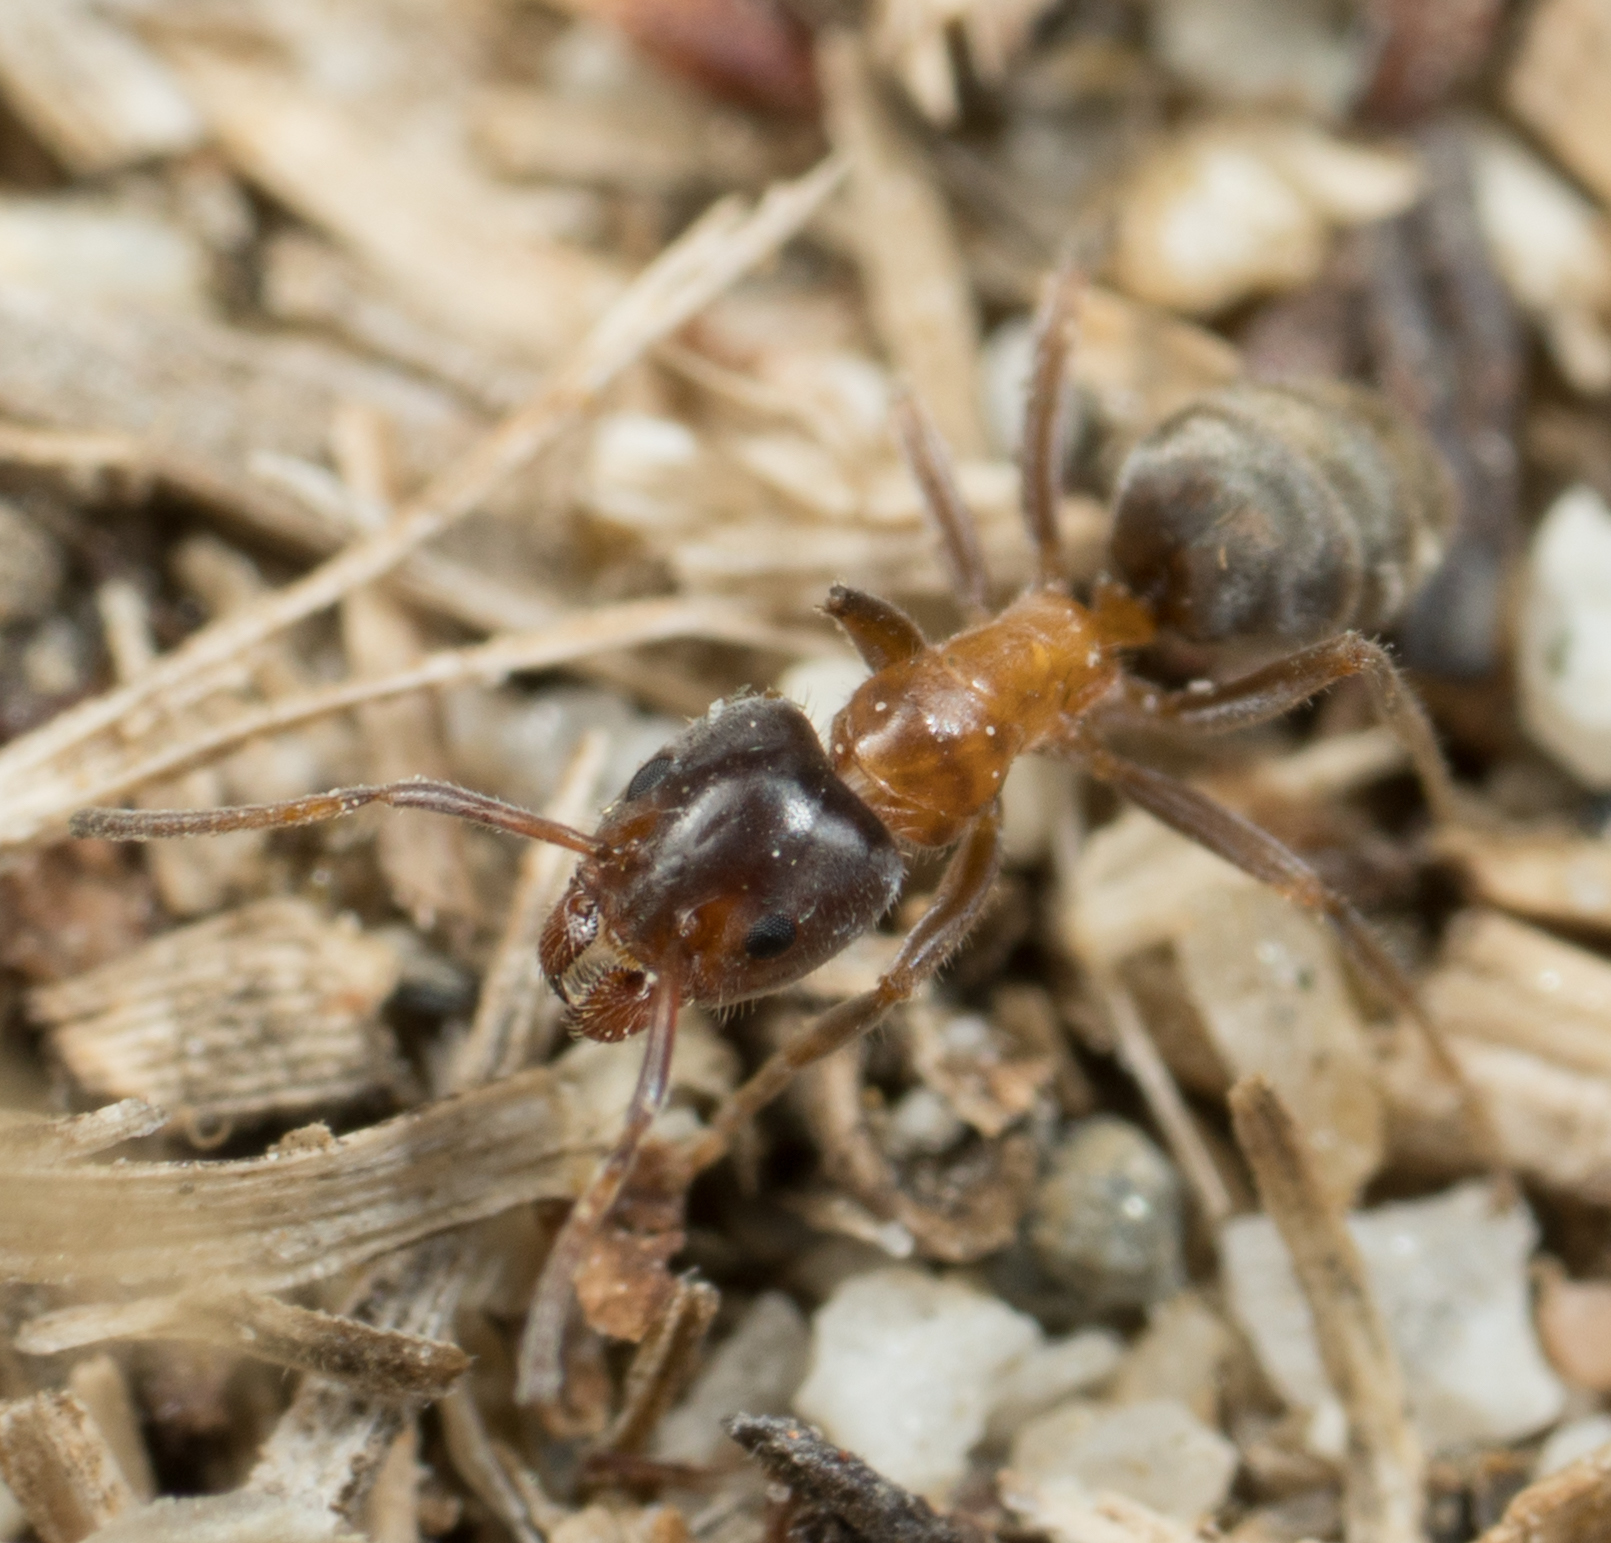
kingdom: Animalia
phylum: Arthropoda
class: Insecta
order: Hymenoptera
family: Formicidae
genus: Liometopum
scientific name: Liometopum occidentale
